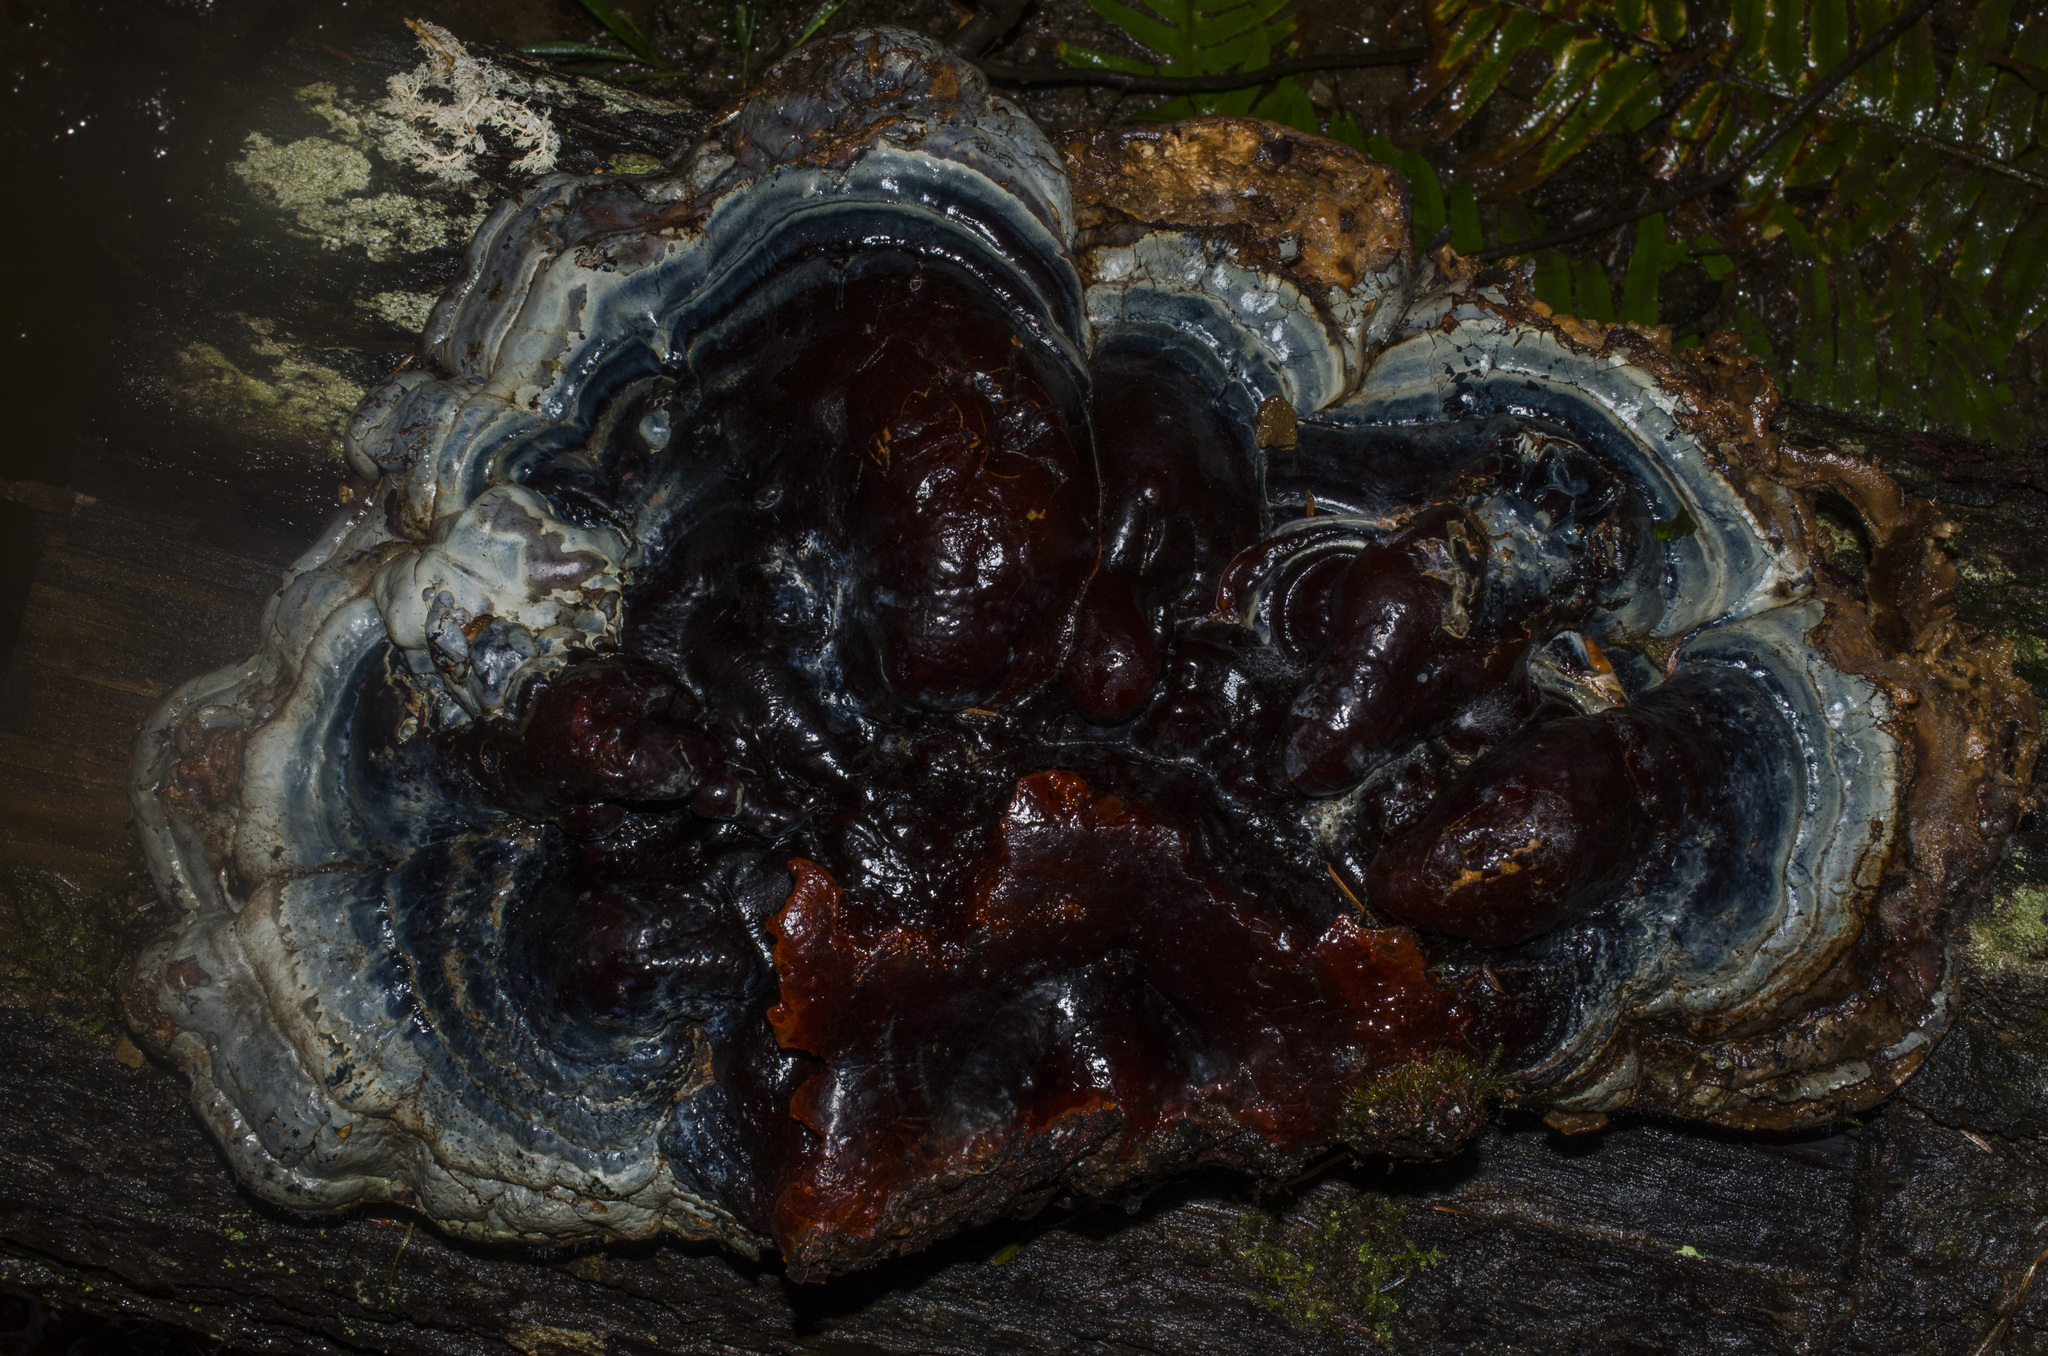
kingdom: Fungi
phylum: Basidiomycota
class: Agaricomycetes
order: Polyporales
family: Polyporaceae
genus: Ganoderma
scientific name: Ganoderma oregonense
